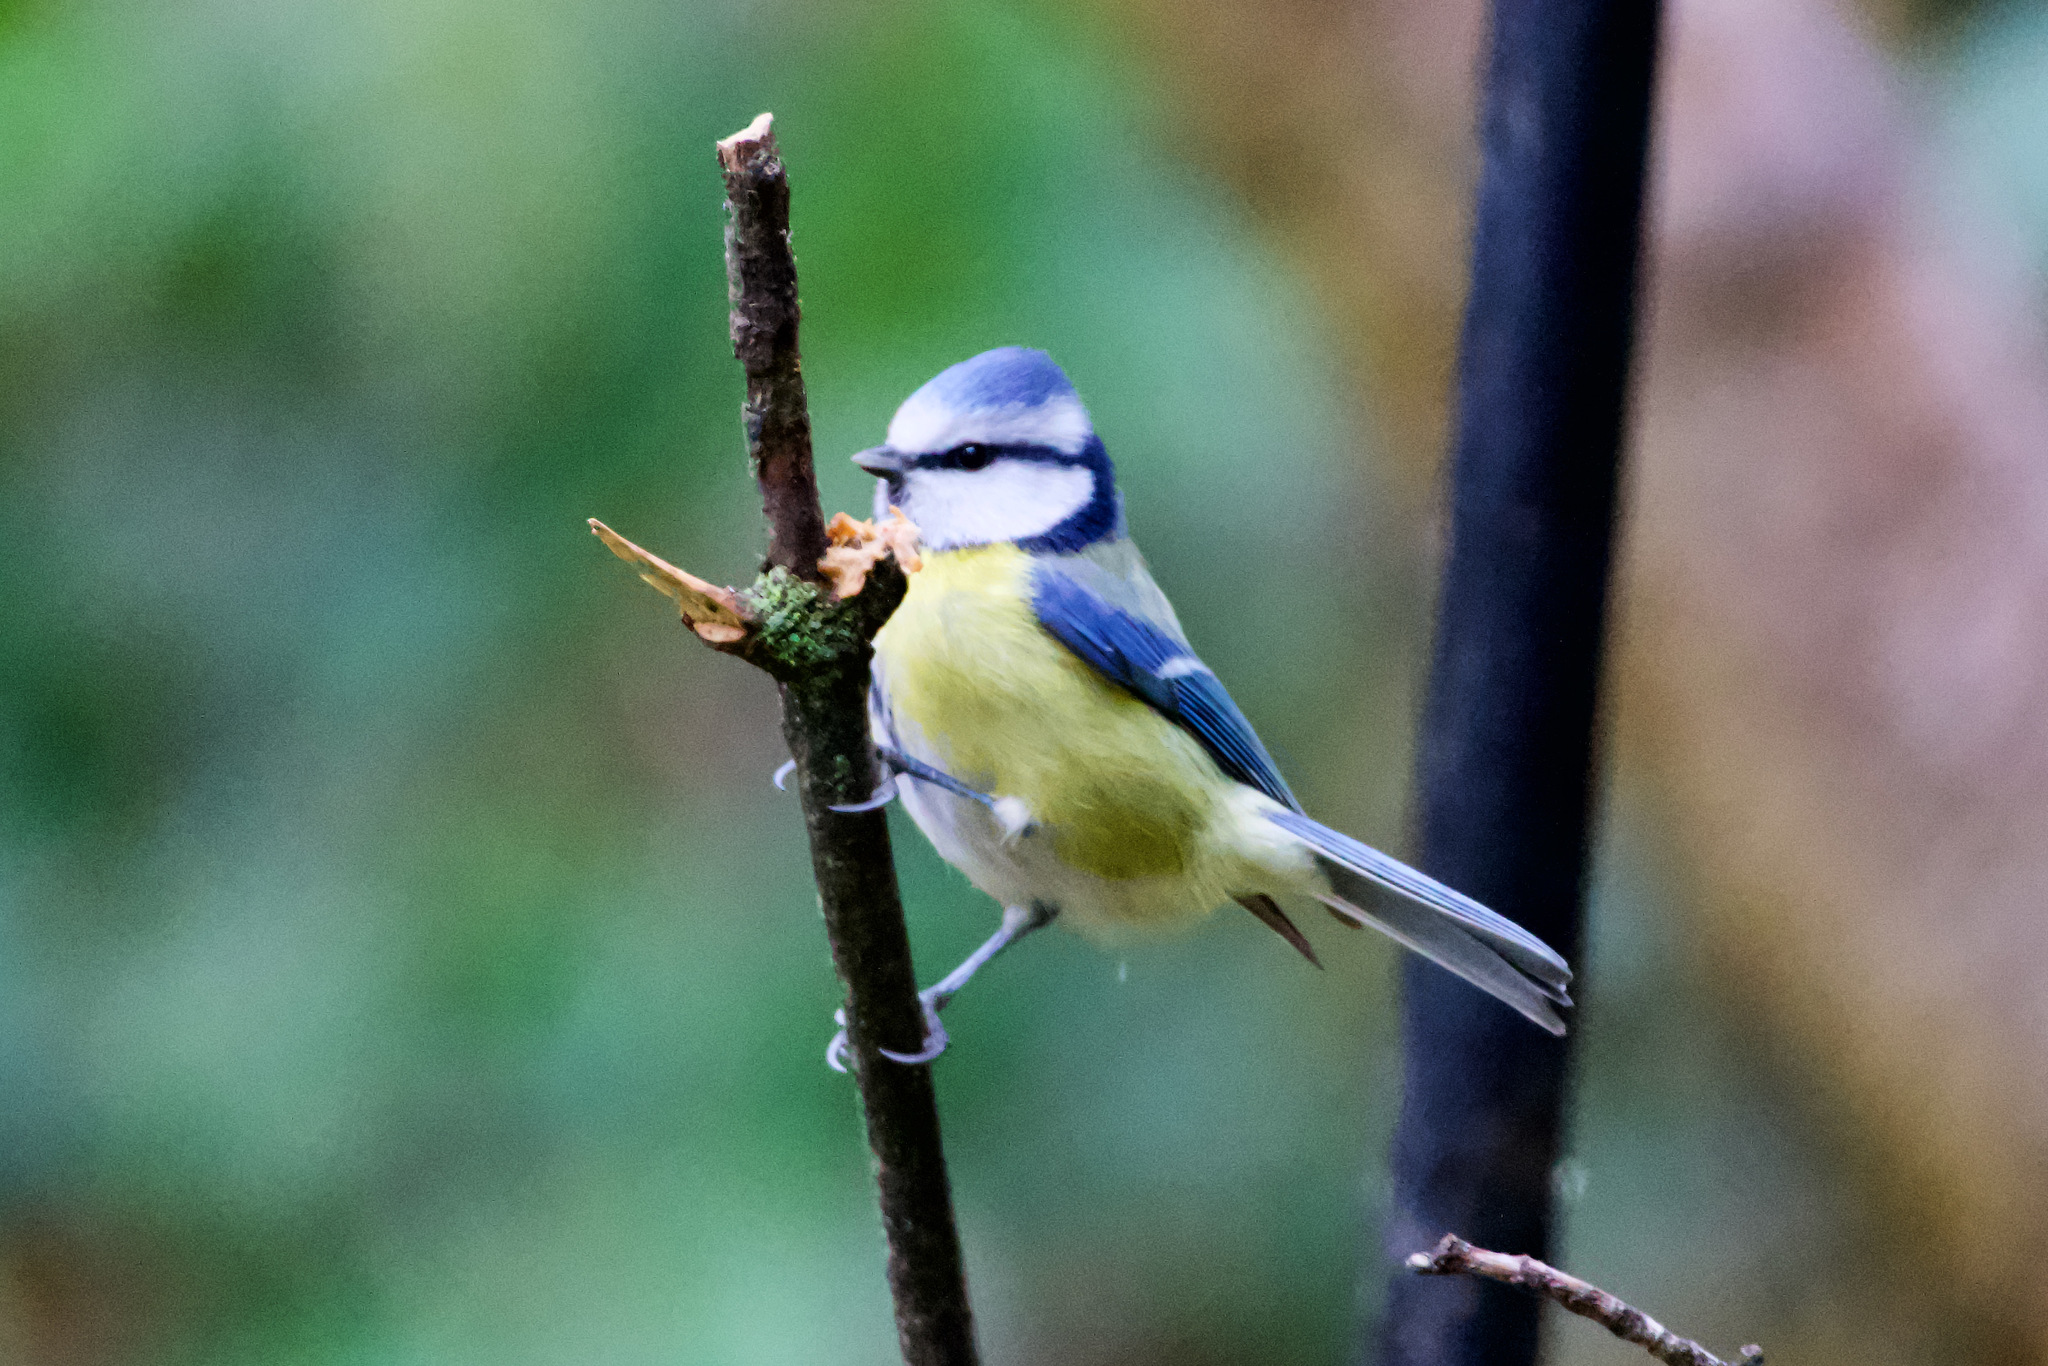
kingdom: Animalia
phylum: Chordata
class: Aves
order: Passeriformes
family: Paridae
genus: Cyanistes
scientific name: Cyanistes caeruleus
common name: Eurasian blue tit
